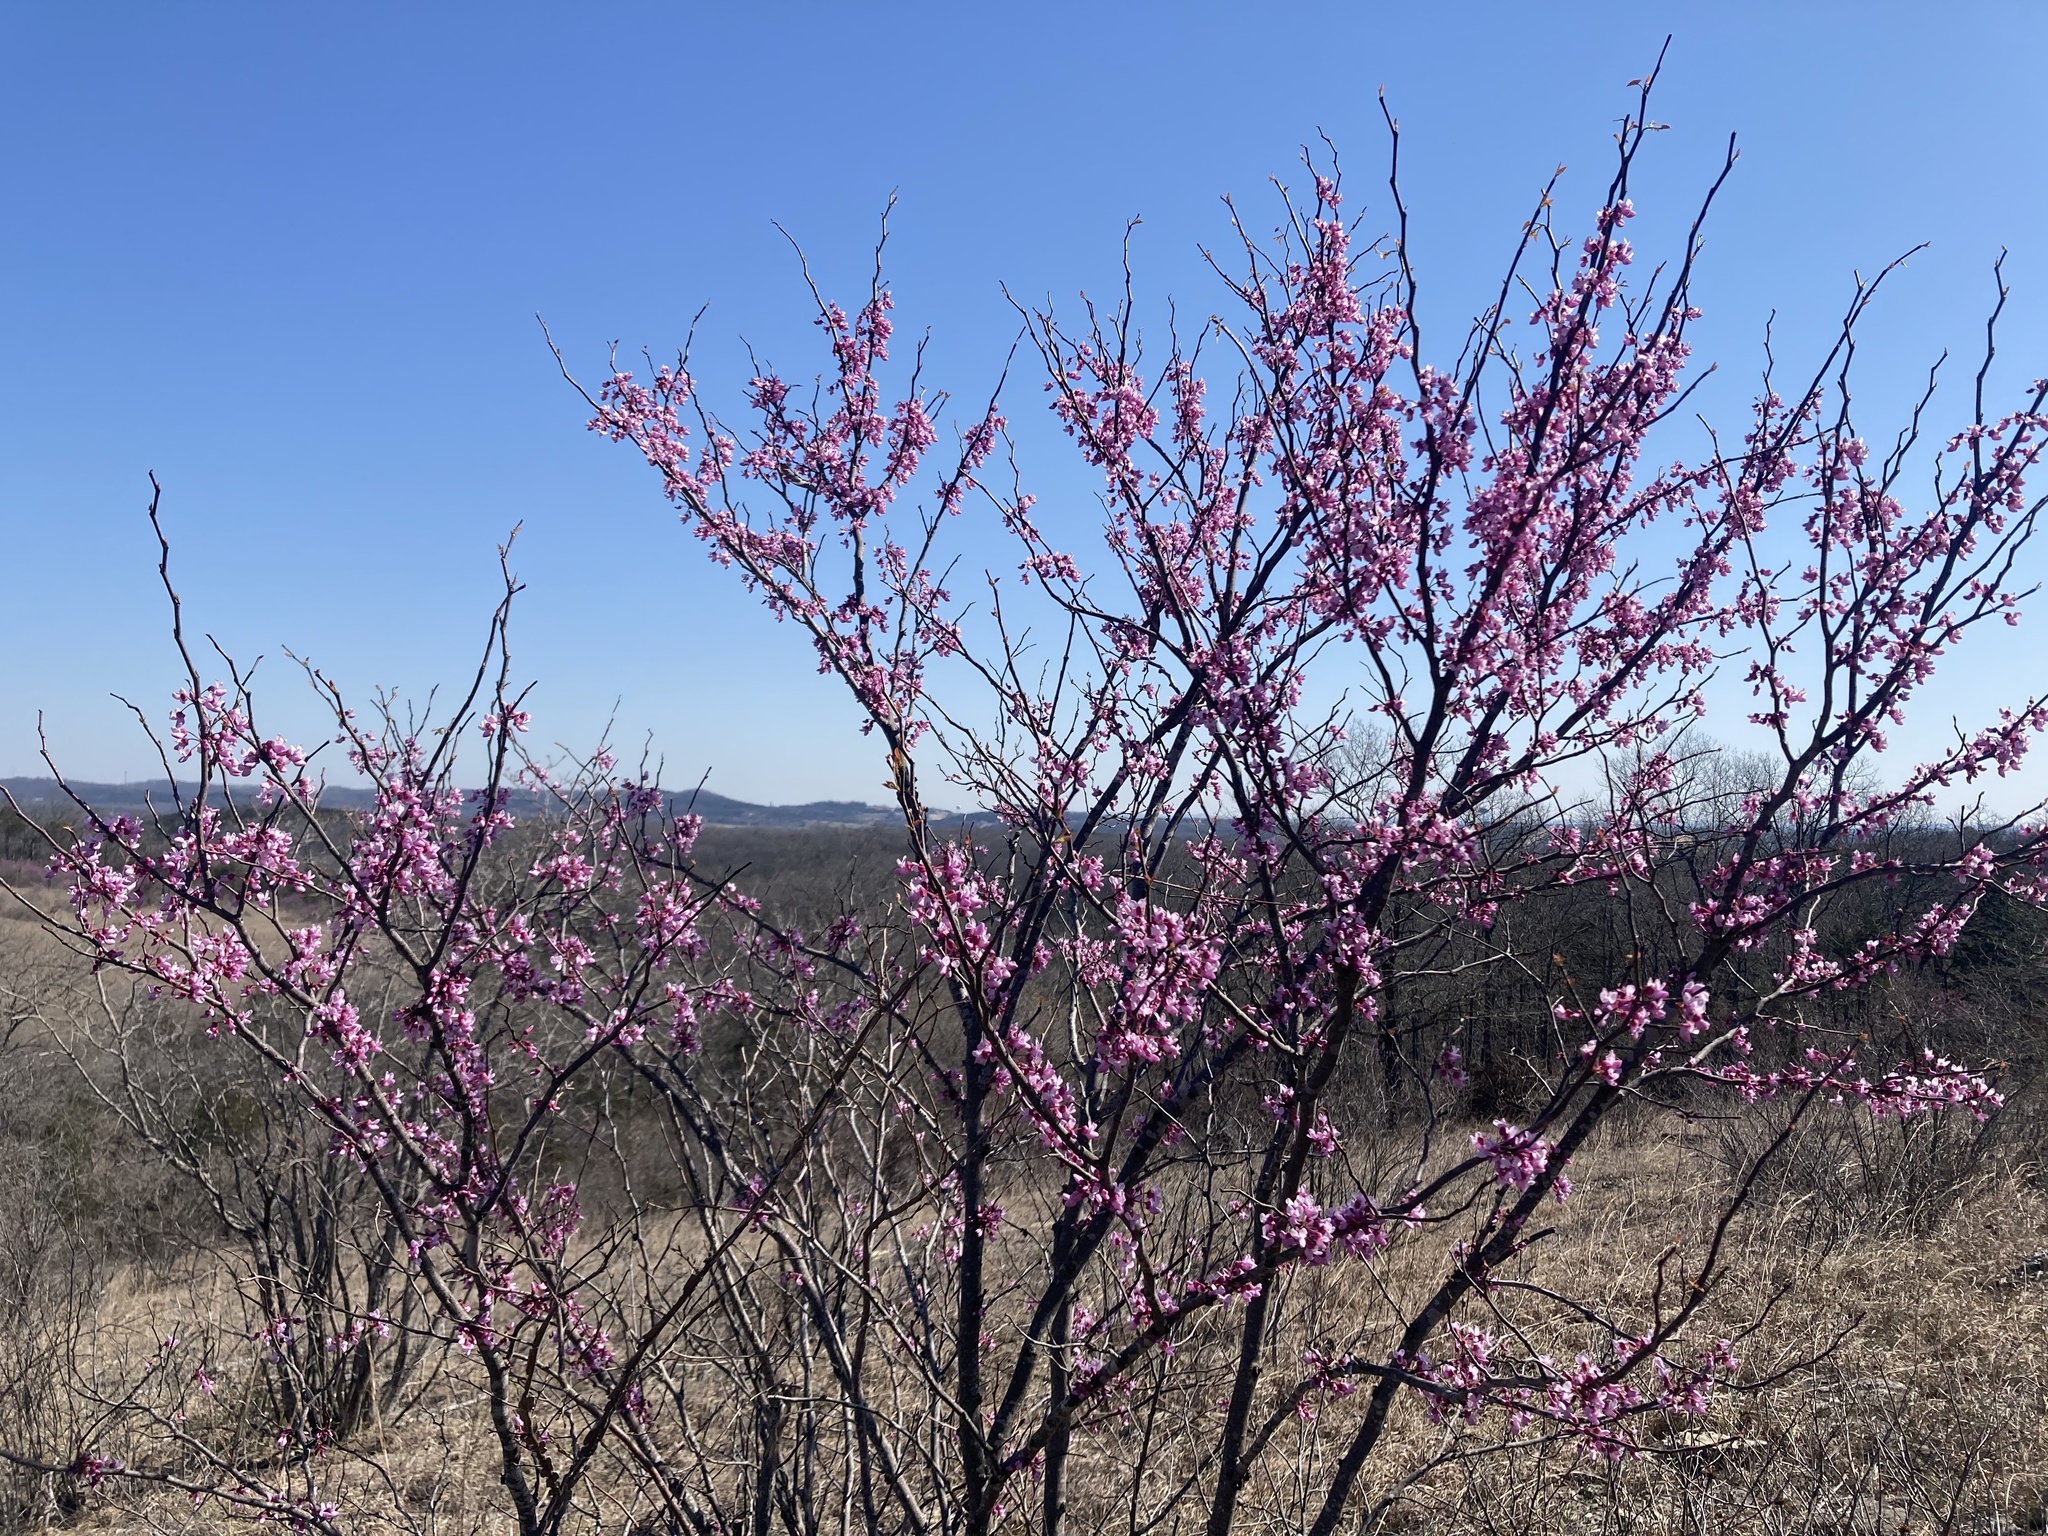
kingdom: Plantae
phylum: Tracheophyta
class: Magnoliopsida
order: Fabales
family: Fabaceae
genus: Cercis
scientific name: Cercis canadensis
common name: Eastern redbud
